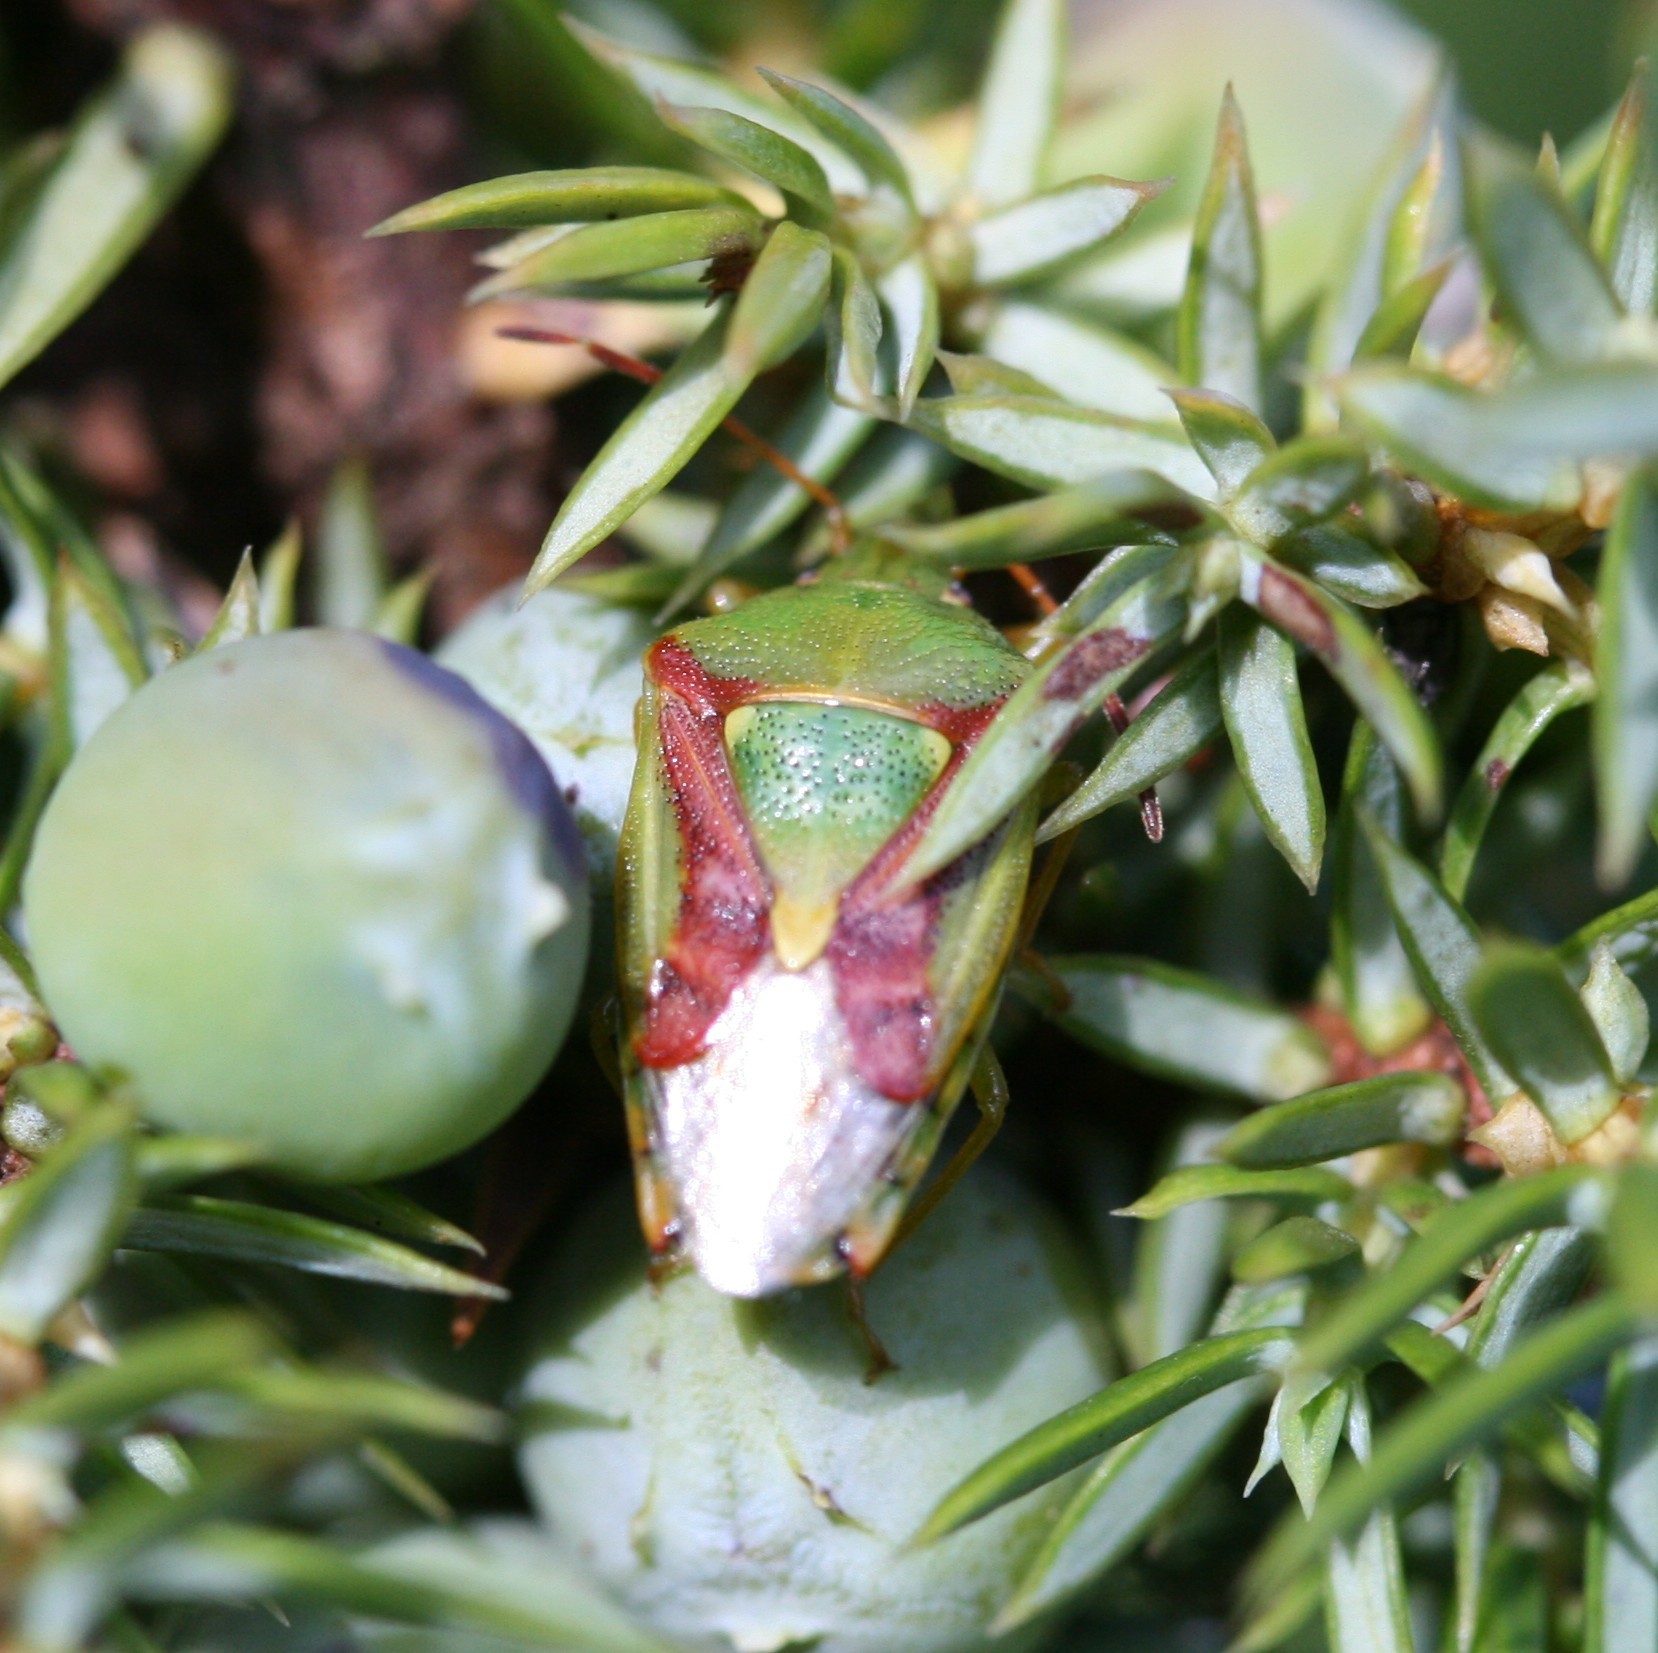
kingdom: Animalia
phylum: Arthropoda
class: Insecta
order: Hemiptera
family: Acanthosomatidae
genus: Cyphostethus
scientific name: Cyphostethus tristriatus
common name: Juniper shieldbug
